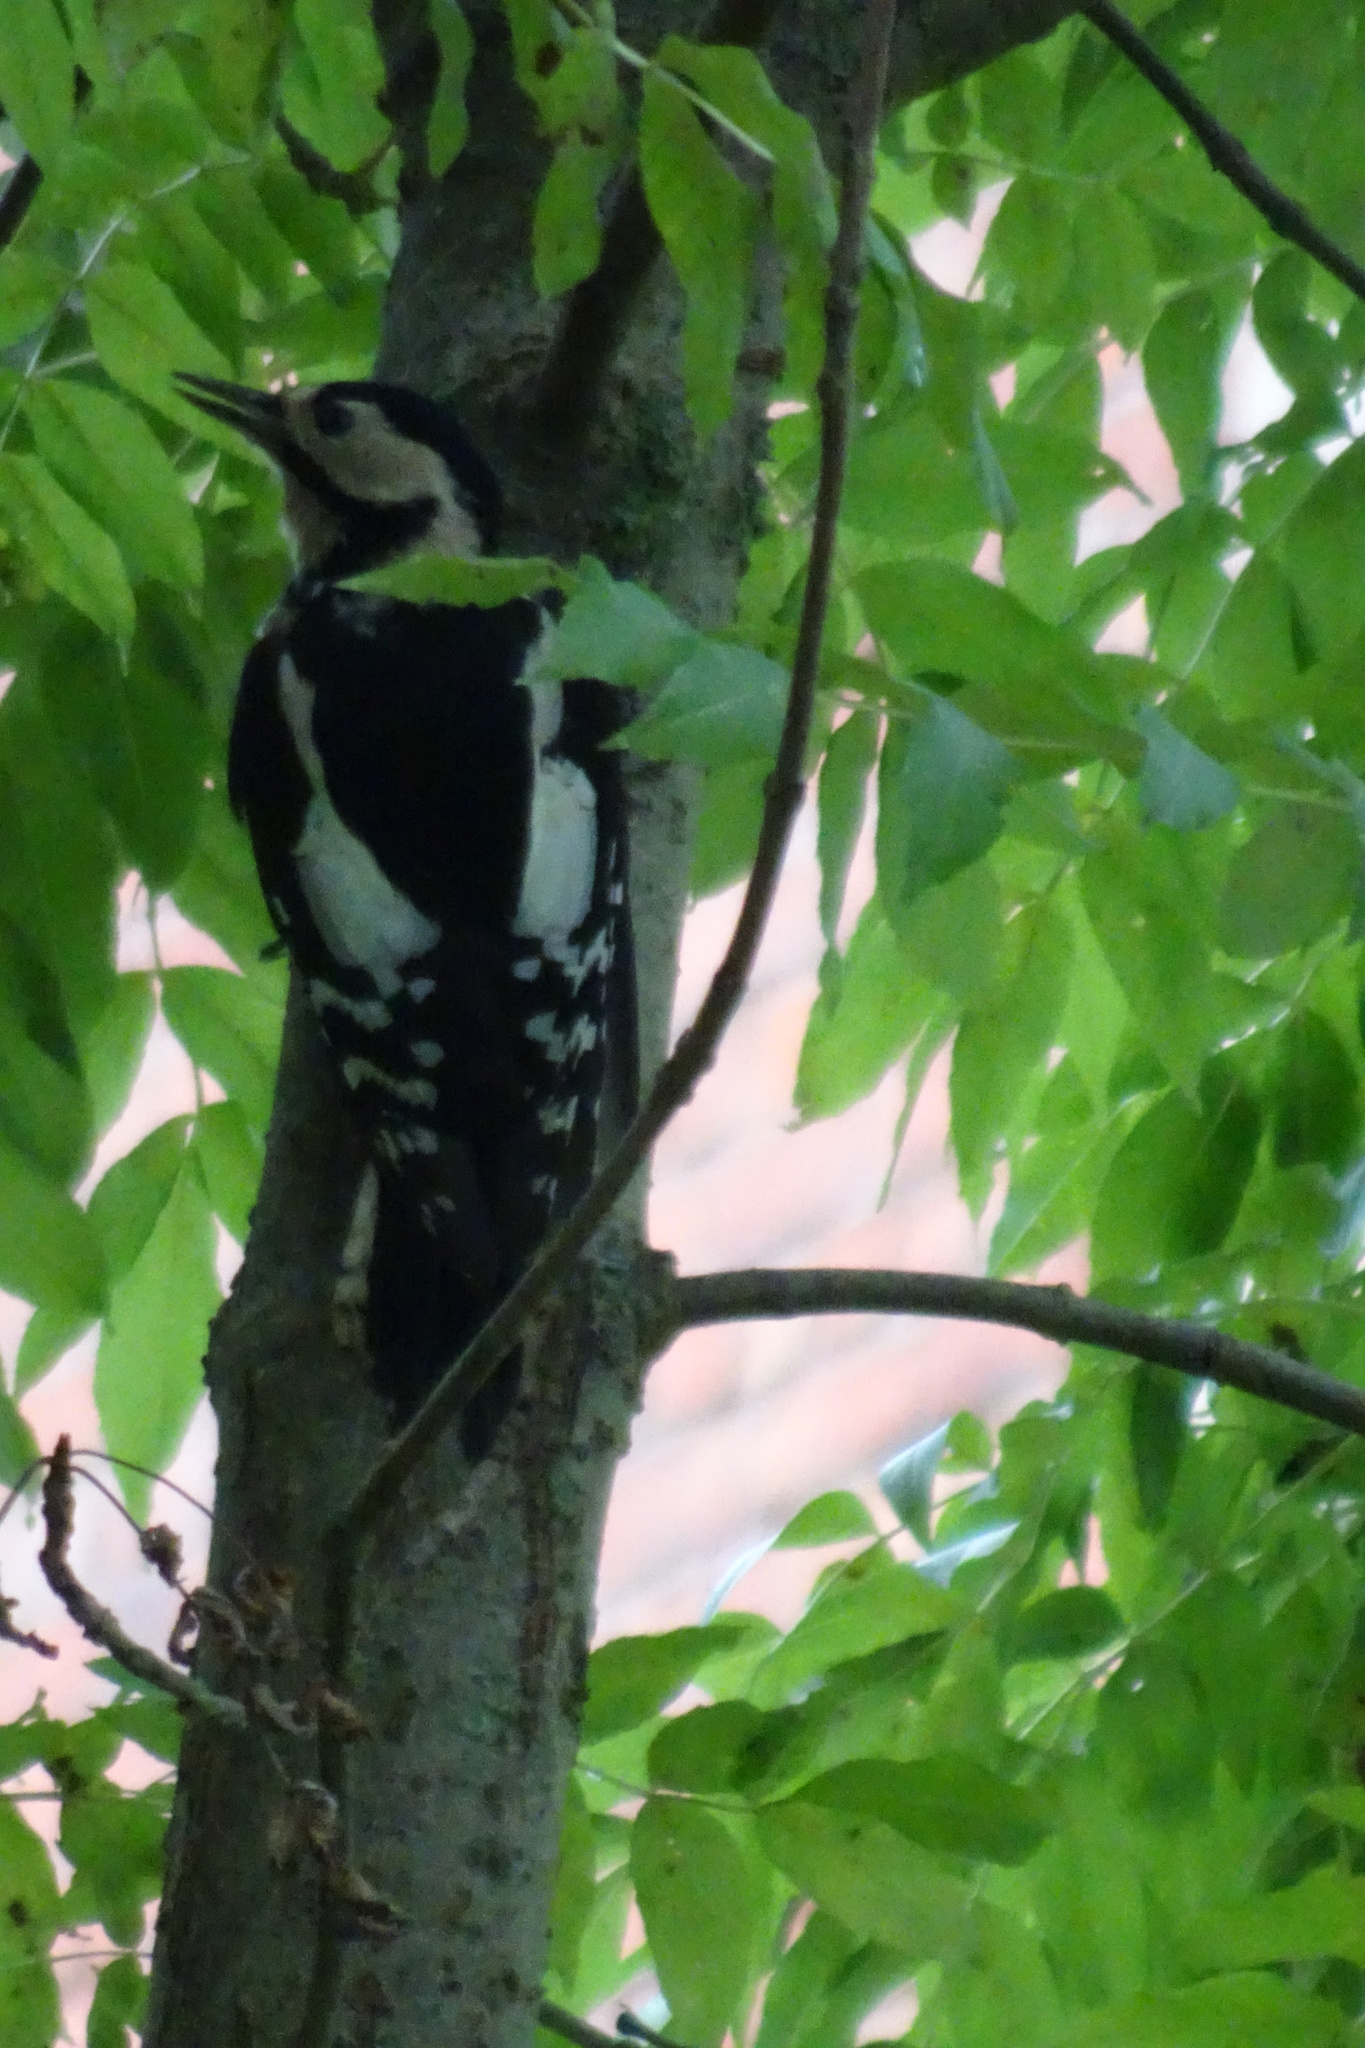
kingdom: Animalia
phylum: Chordata
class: Aves
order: Piciformes
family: Picidae
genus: Dendrocopos
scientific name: Dendrocopos major
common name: Great spotted woodpecker
